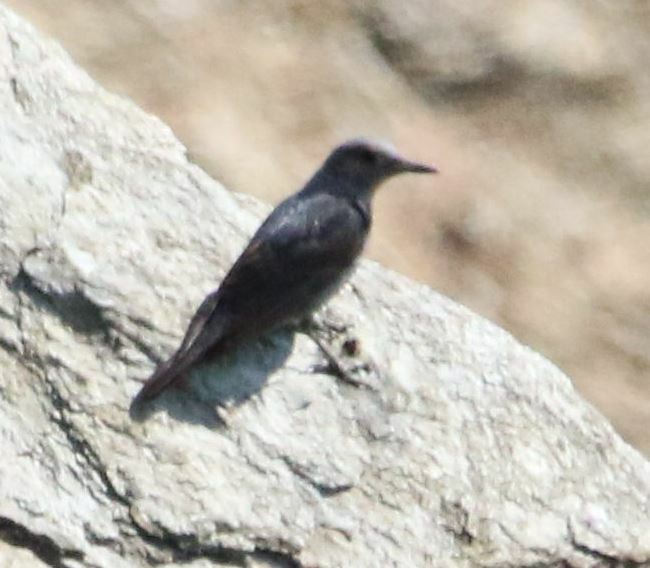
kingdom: Animalia
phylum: Chordata
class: Aves
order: Passeriformes
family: Muscicapidae
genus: Monticola
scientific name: Monticola solitarius
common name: Blue rock thrush
